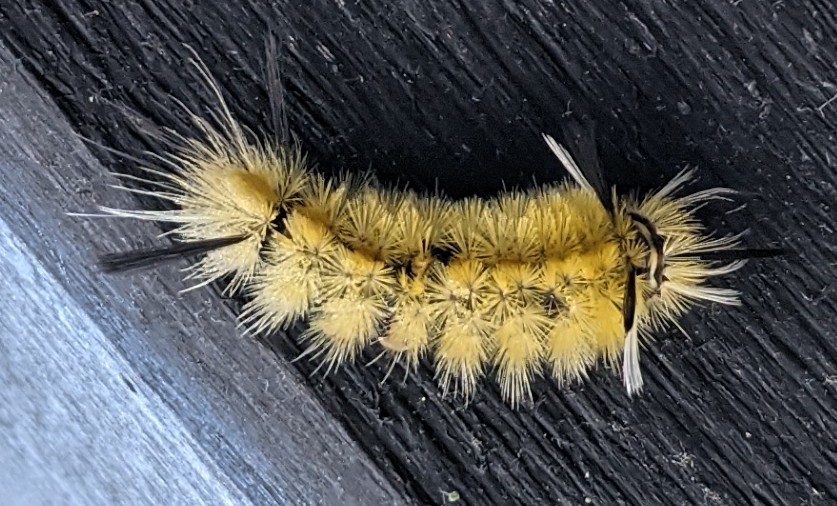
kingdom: Animalia
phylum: Arthropoda
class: Insecta
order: Lepidoptera
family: Erebidae
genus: Halysidota
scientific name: Halysidota tessellaris
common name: Banded tussock moth
